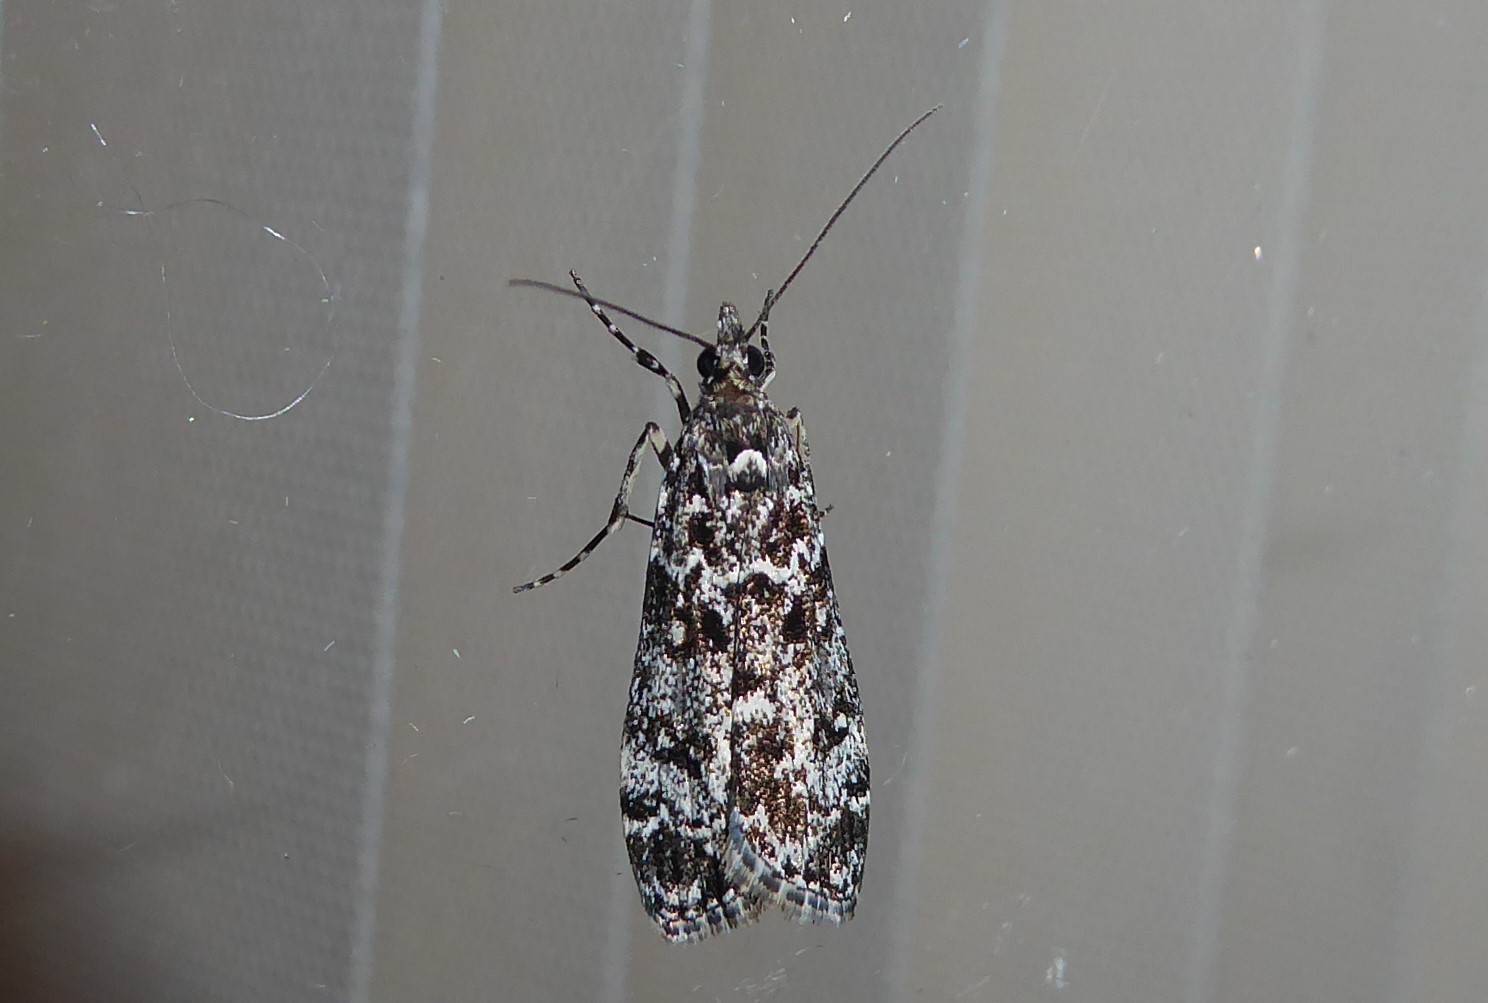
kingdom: Animalia
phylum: Arthropoda
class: Insecta
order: Lepidoptera
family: Crambidae
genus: Eudonia
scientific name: Eudonia philerga
